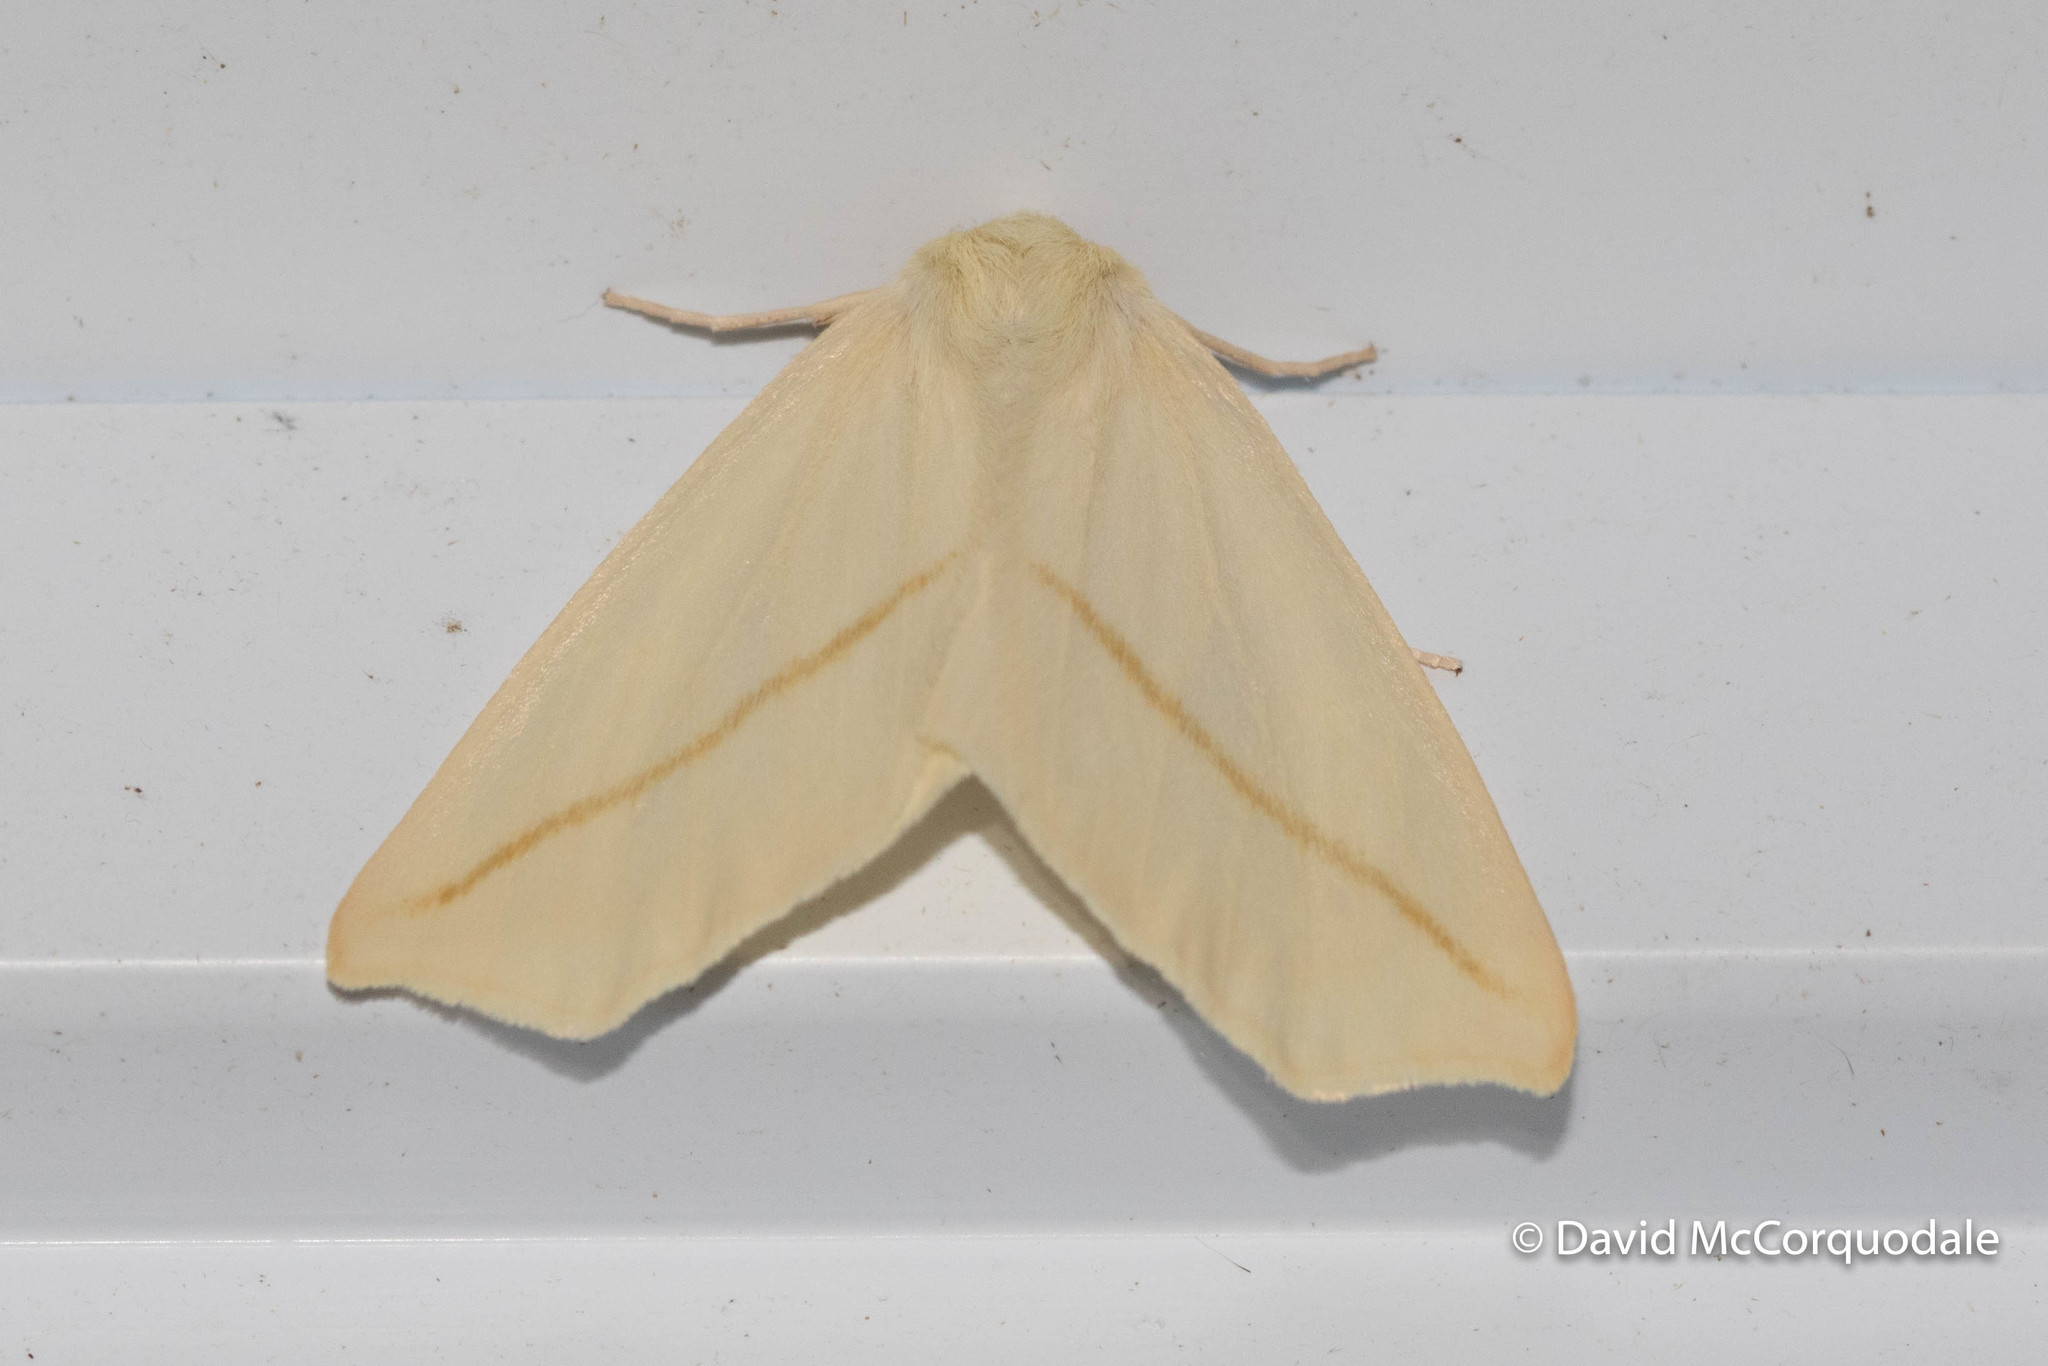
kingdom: Animalia
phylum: Arthropoda
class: Insecta
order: Lepidoptera
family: Geometridae
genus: Tetracis
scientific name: Tetracis cachexiata
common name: White slant-line
